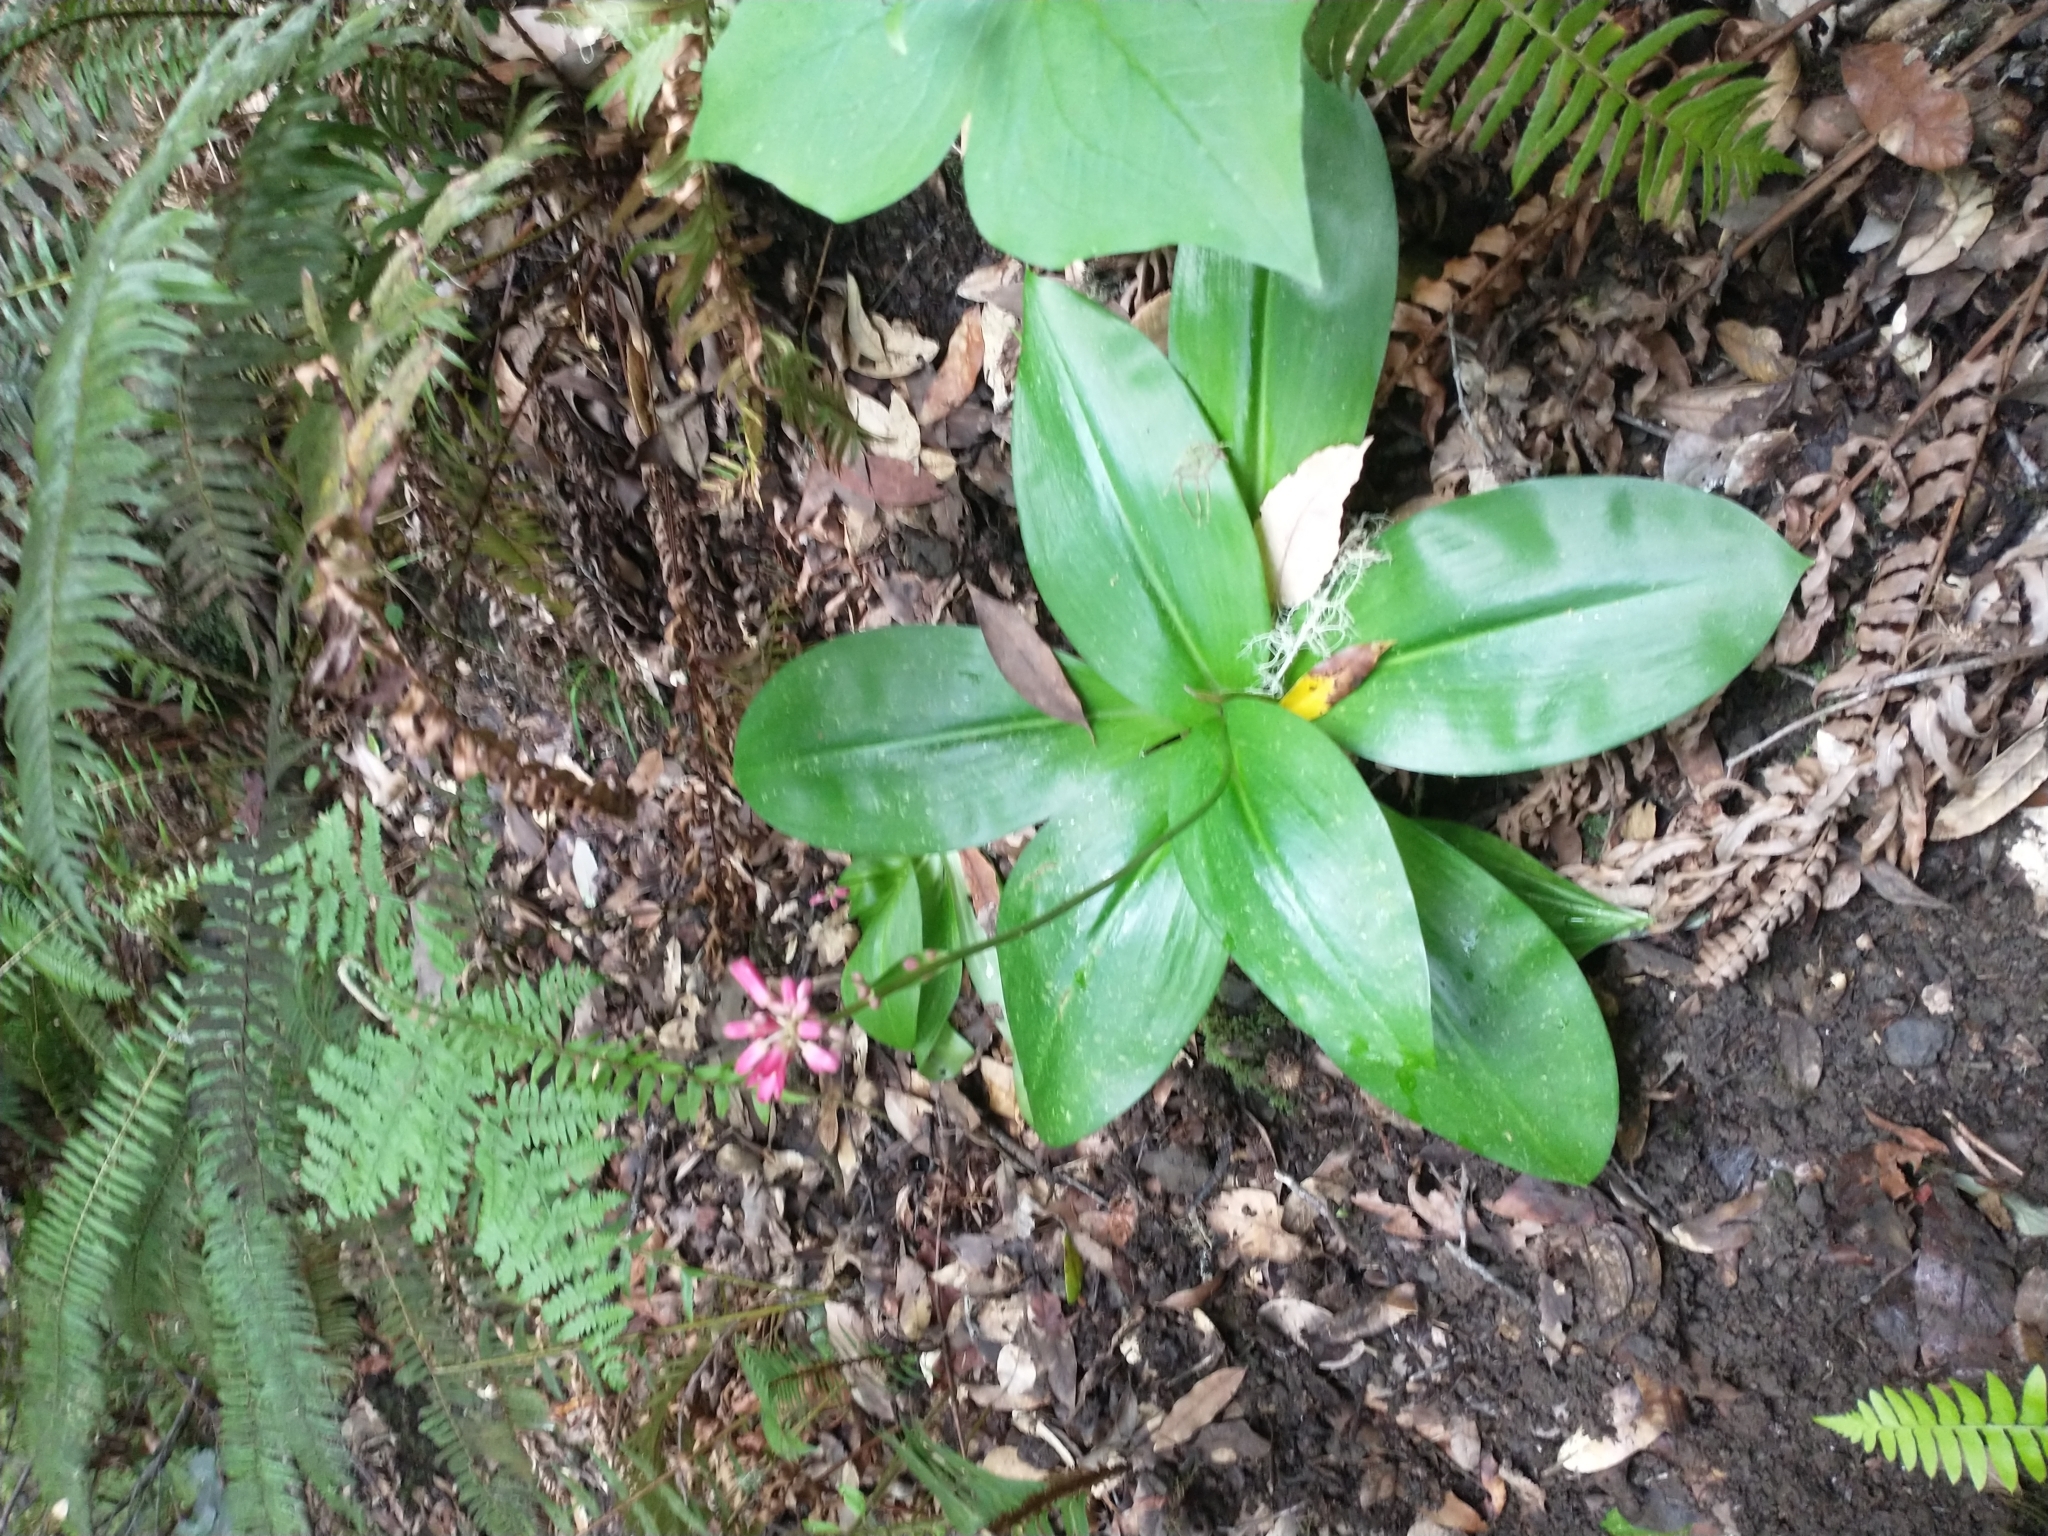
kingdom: Plantae
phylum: Tracheophyta
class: Liliopsida
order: Liliales
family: Liliaceae
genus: Clintonia
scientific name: Clintonia andrewsiana
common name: Red clintonia
